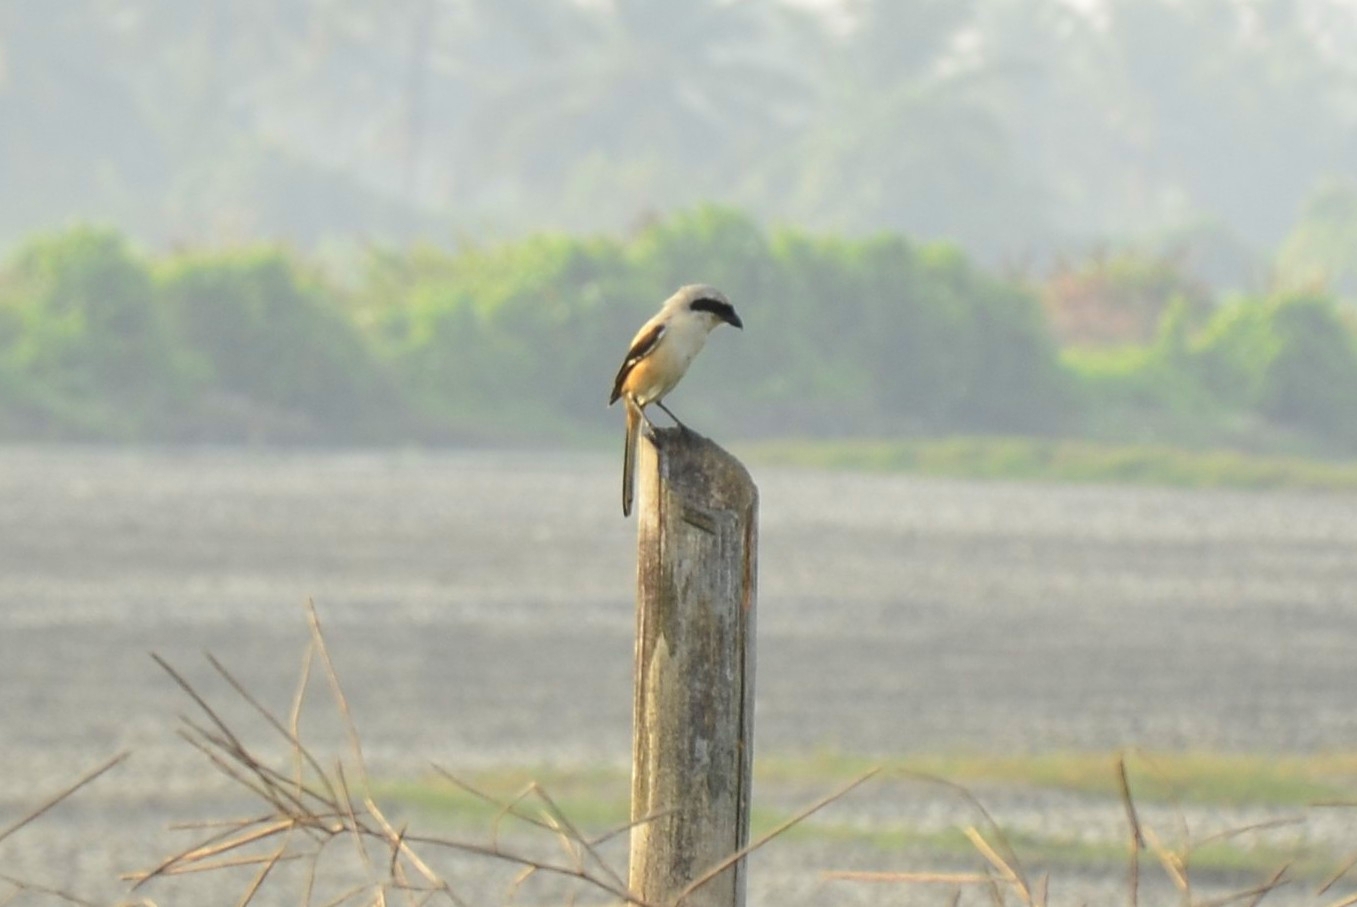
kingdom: Animalia
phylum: Chordata
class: Aves
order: Passeriformes
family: Laniidae
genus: Lanius
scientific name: Lanius schach
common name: Long-tailed shrike
